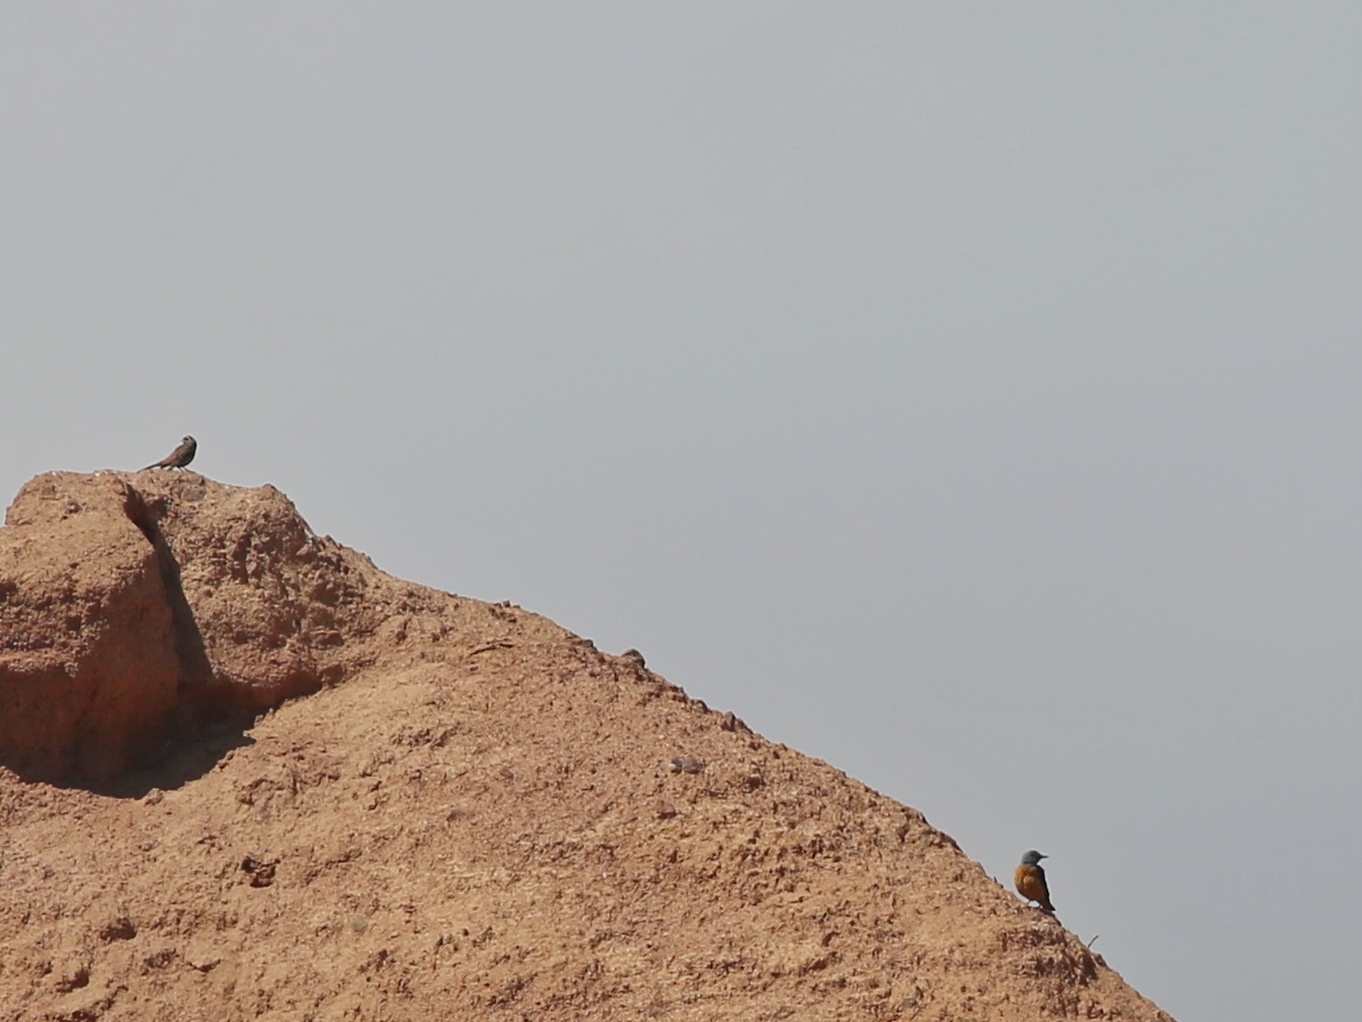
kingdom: Animalia
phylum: Chordata
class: Aves
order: Passeriformes
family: Muscicapidae
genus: Monticola
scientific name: Monticola saxatilis
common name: Rufous-tailed rock thrush
